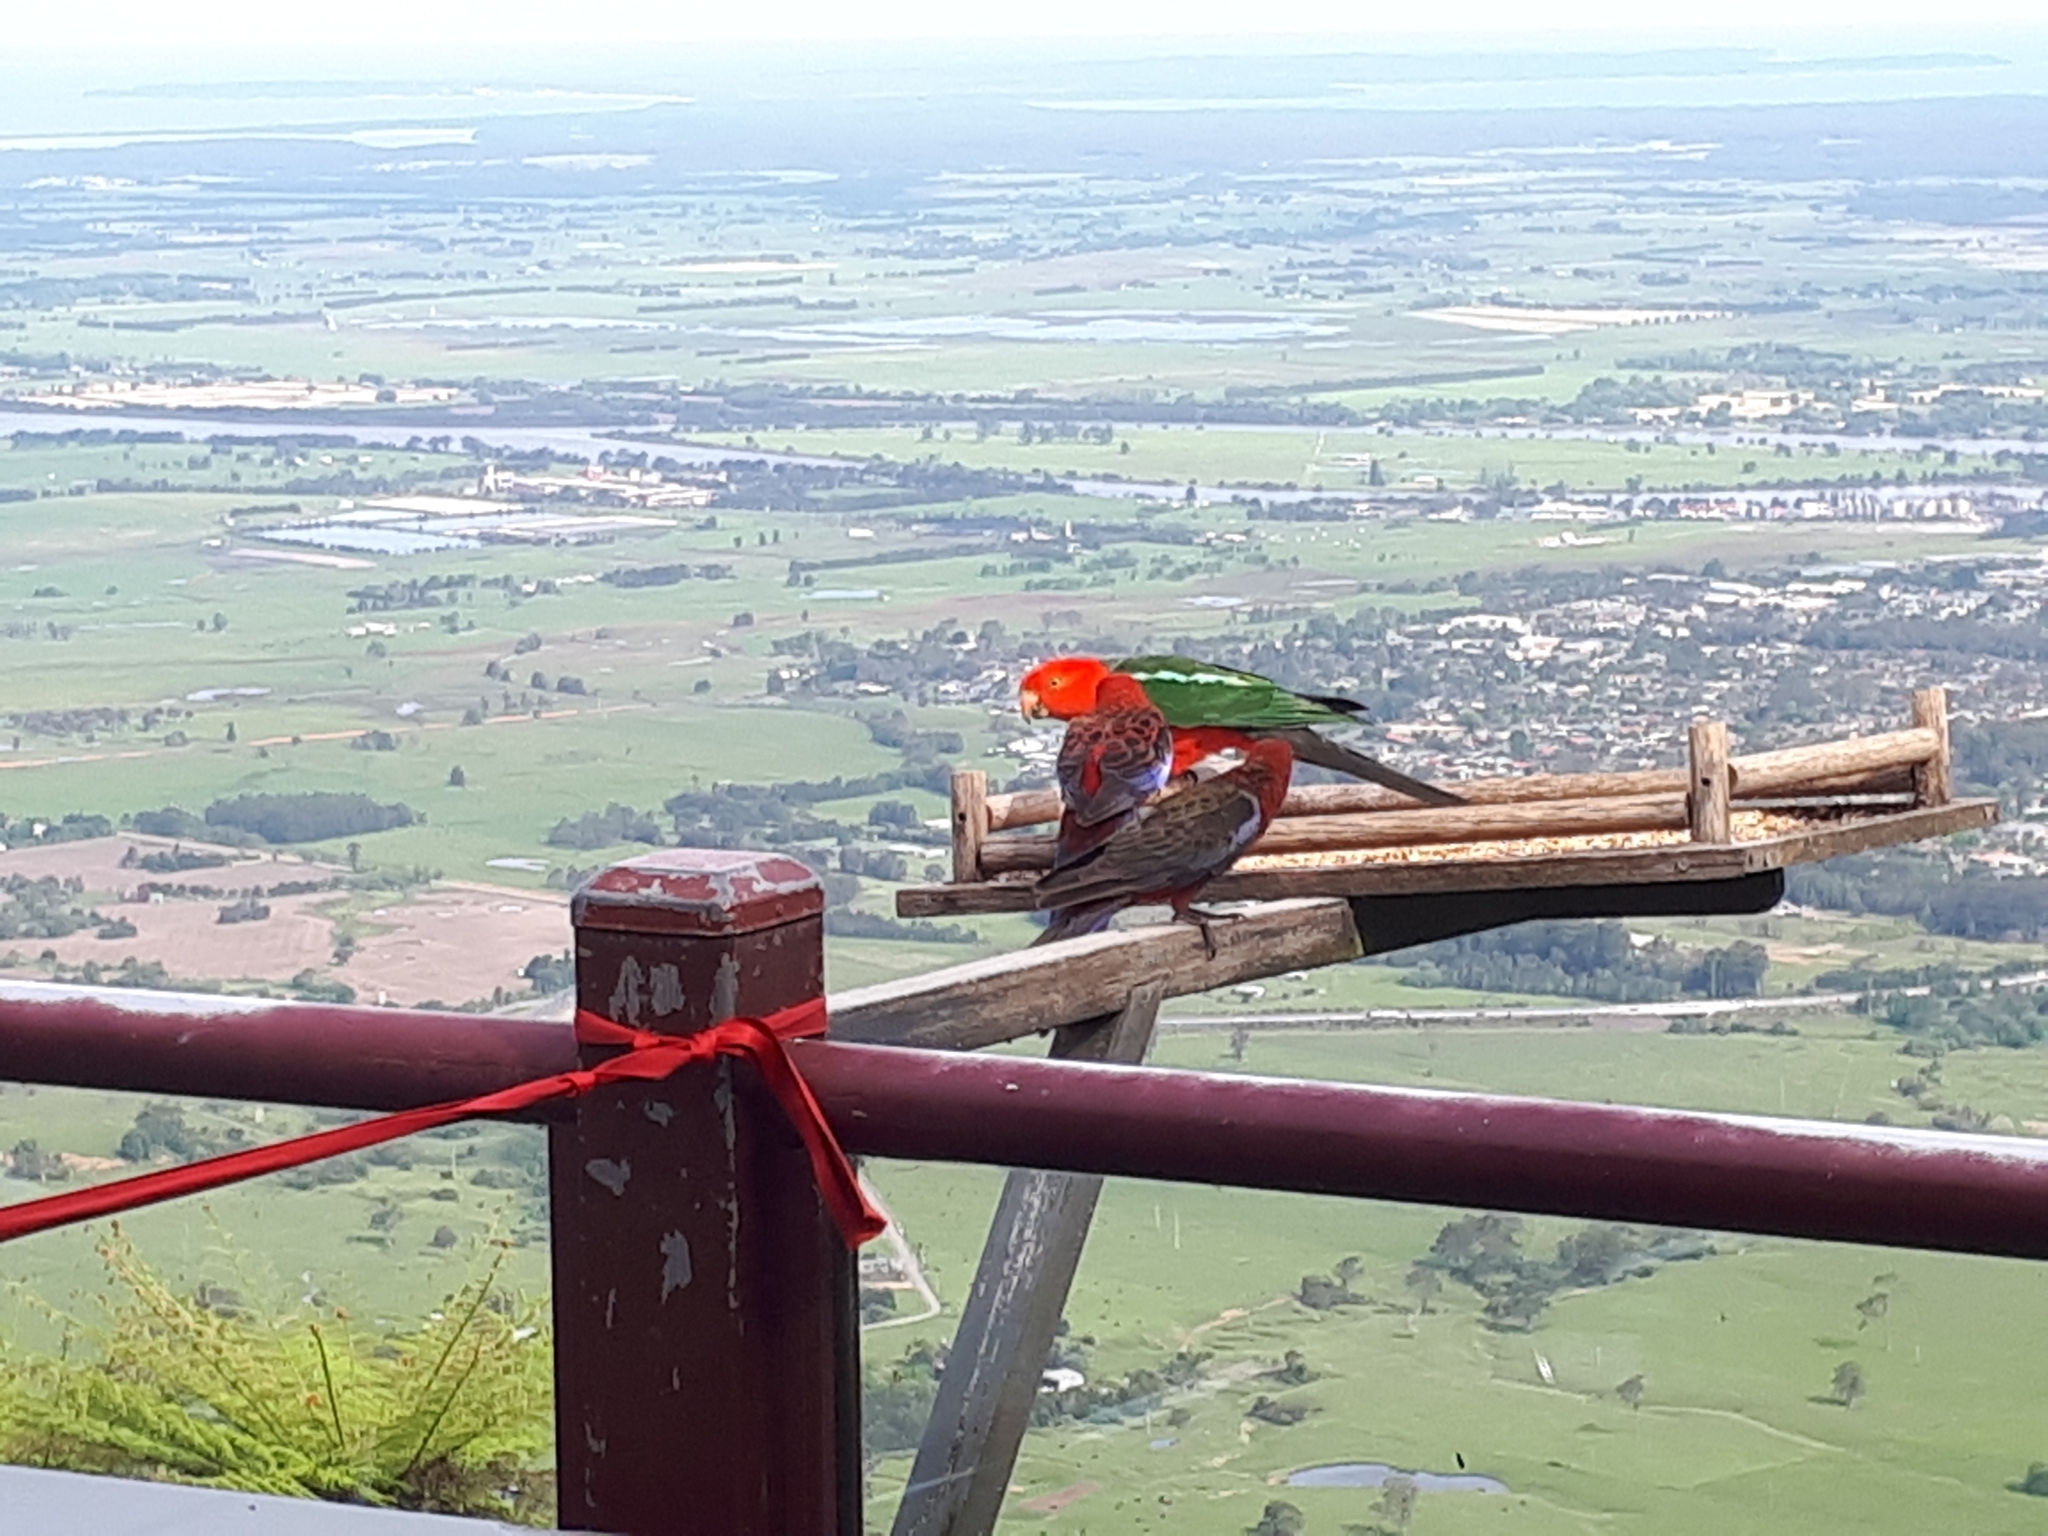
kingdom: Animalia
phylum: Chordata
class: Aves
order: Psittaciformes
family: Psittacidae
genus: Alisterus
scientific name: Alisterus scapularis
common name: Australian king parrot
